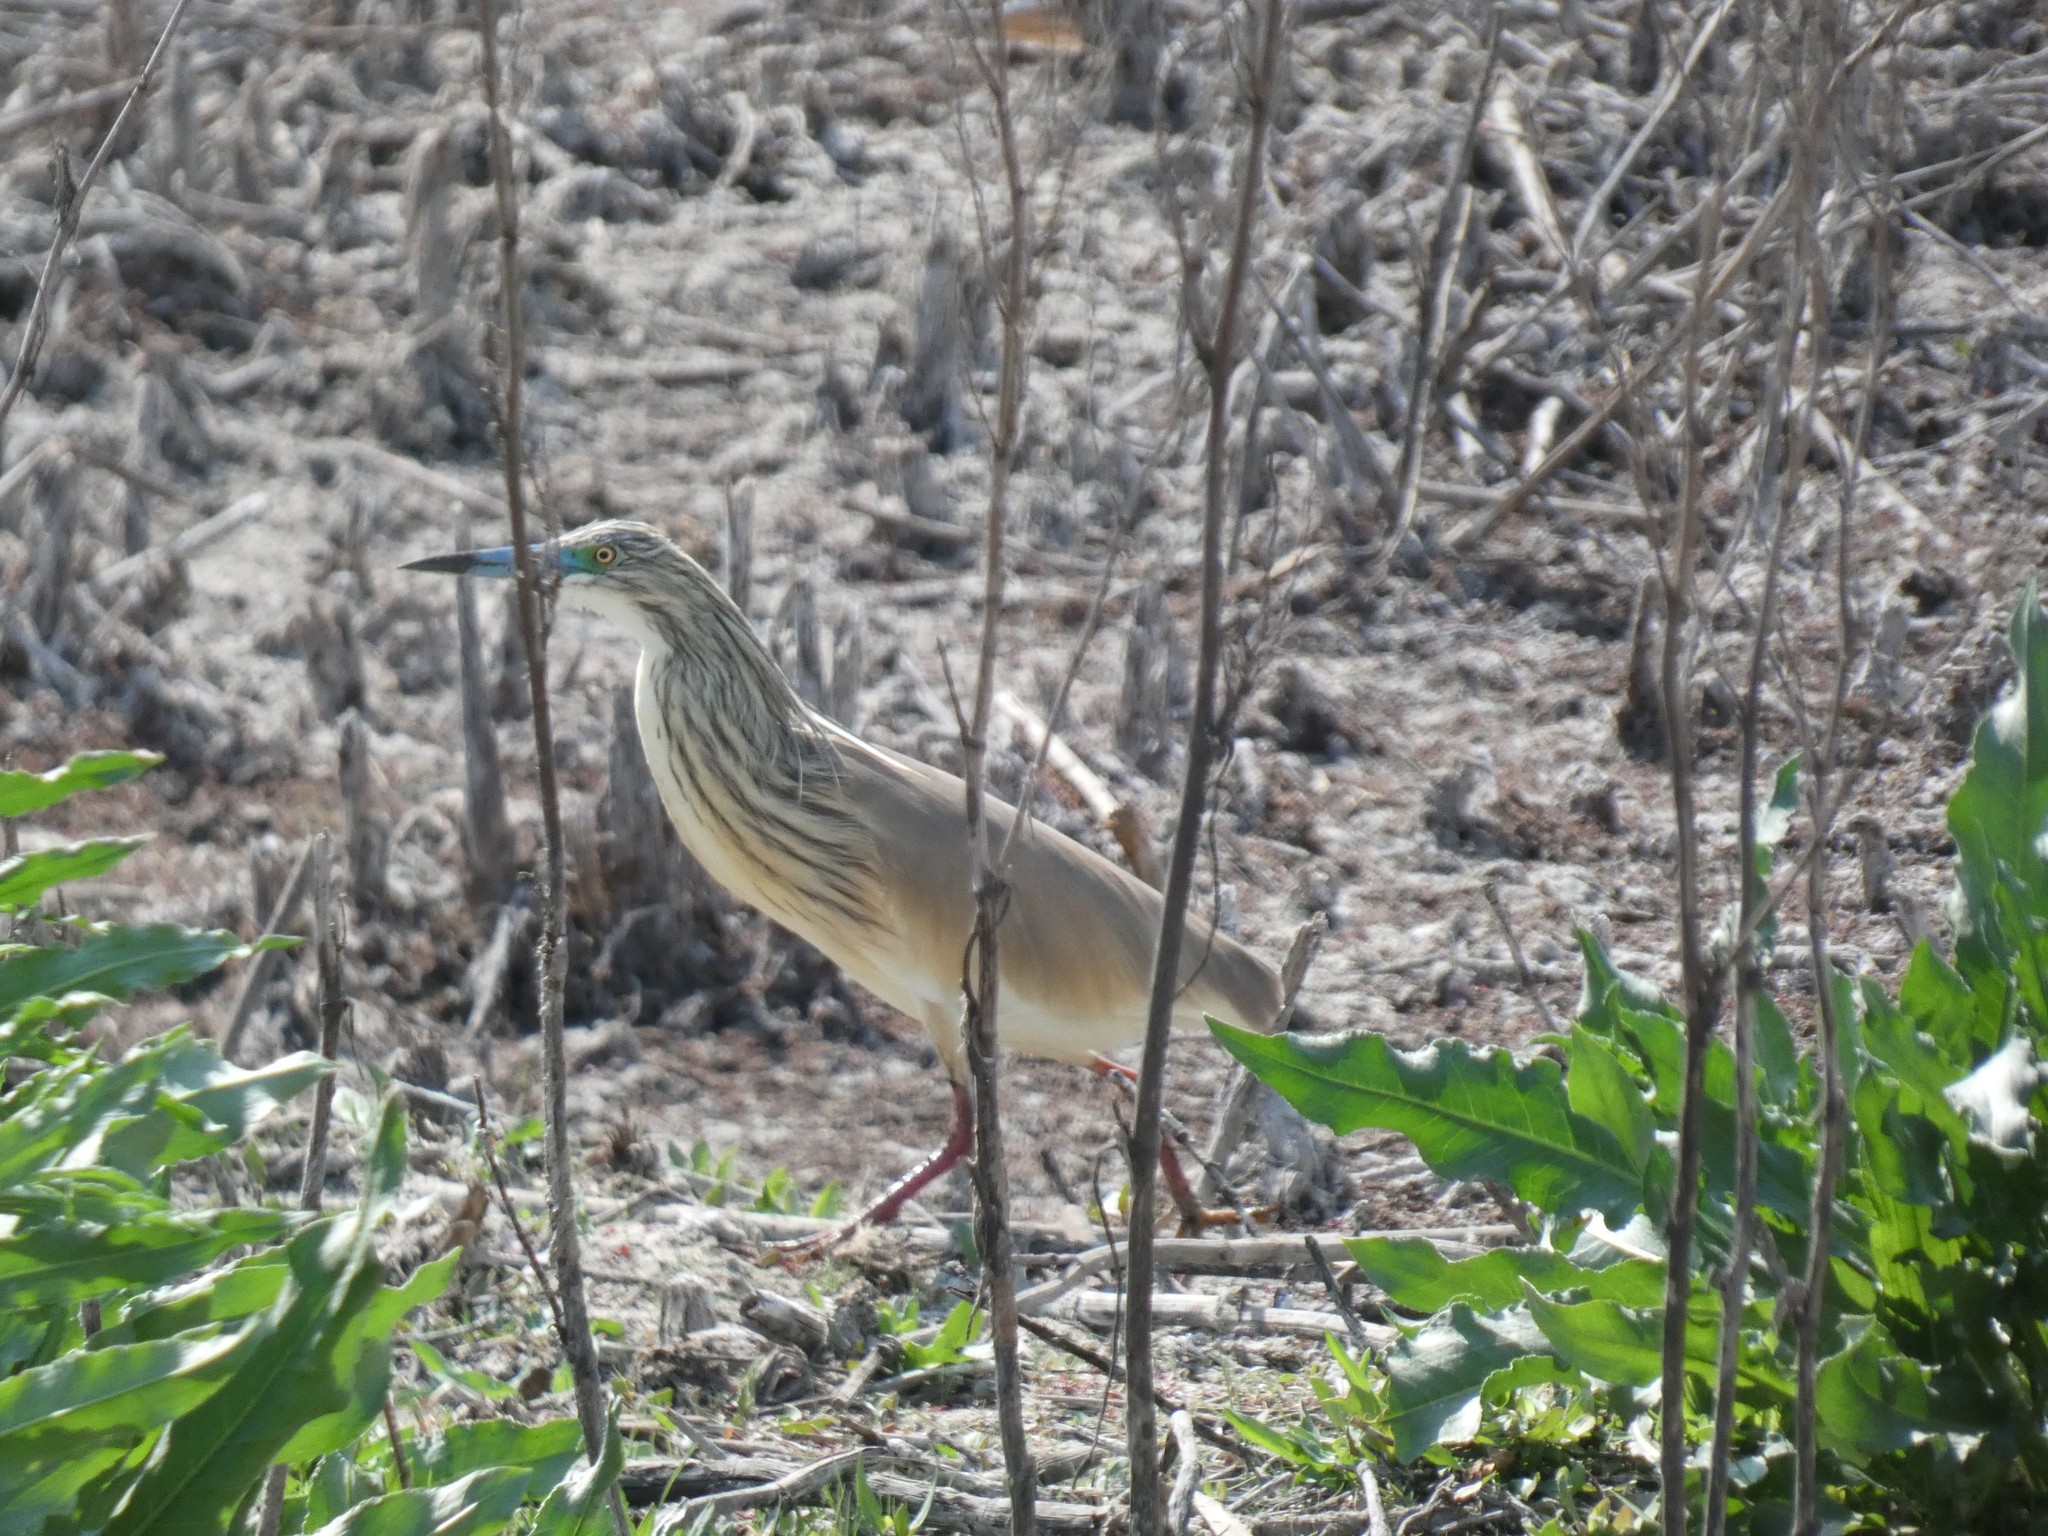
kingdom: Animalia
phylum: Chordata
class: Aves
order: Pelecaniformes
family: Ardeidae
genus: Ardeola
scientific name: Ardeola ralloides
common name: Squacco heron
